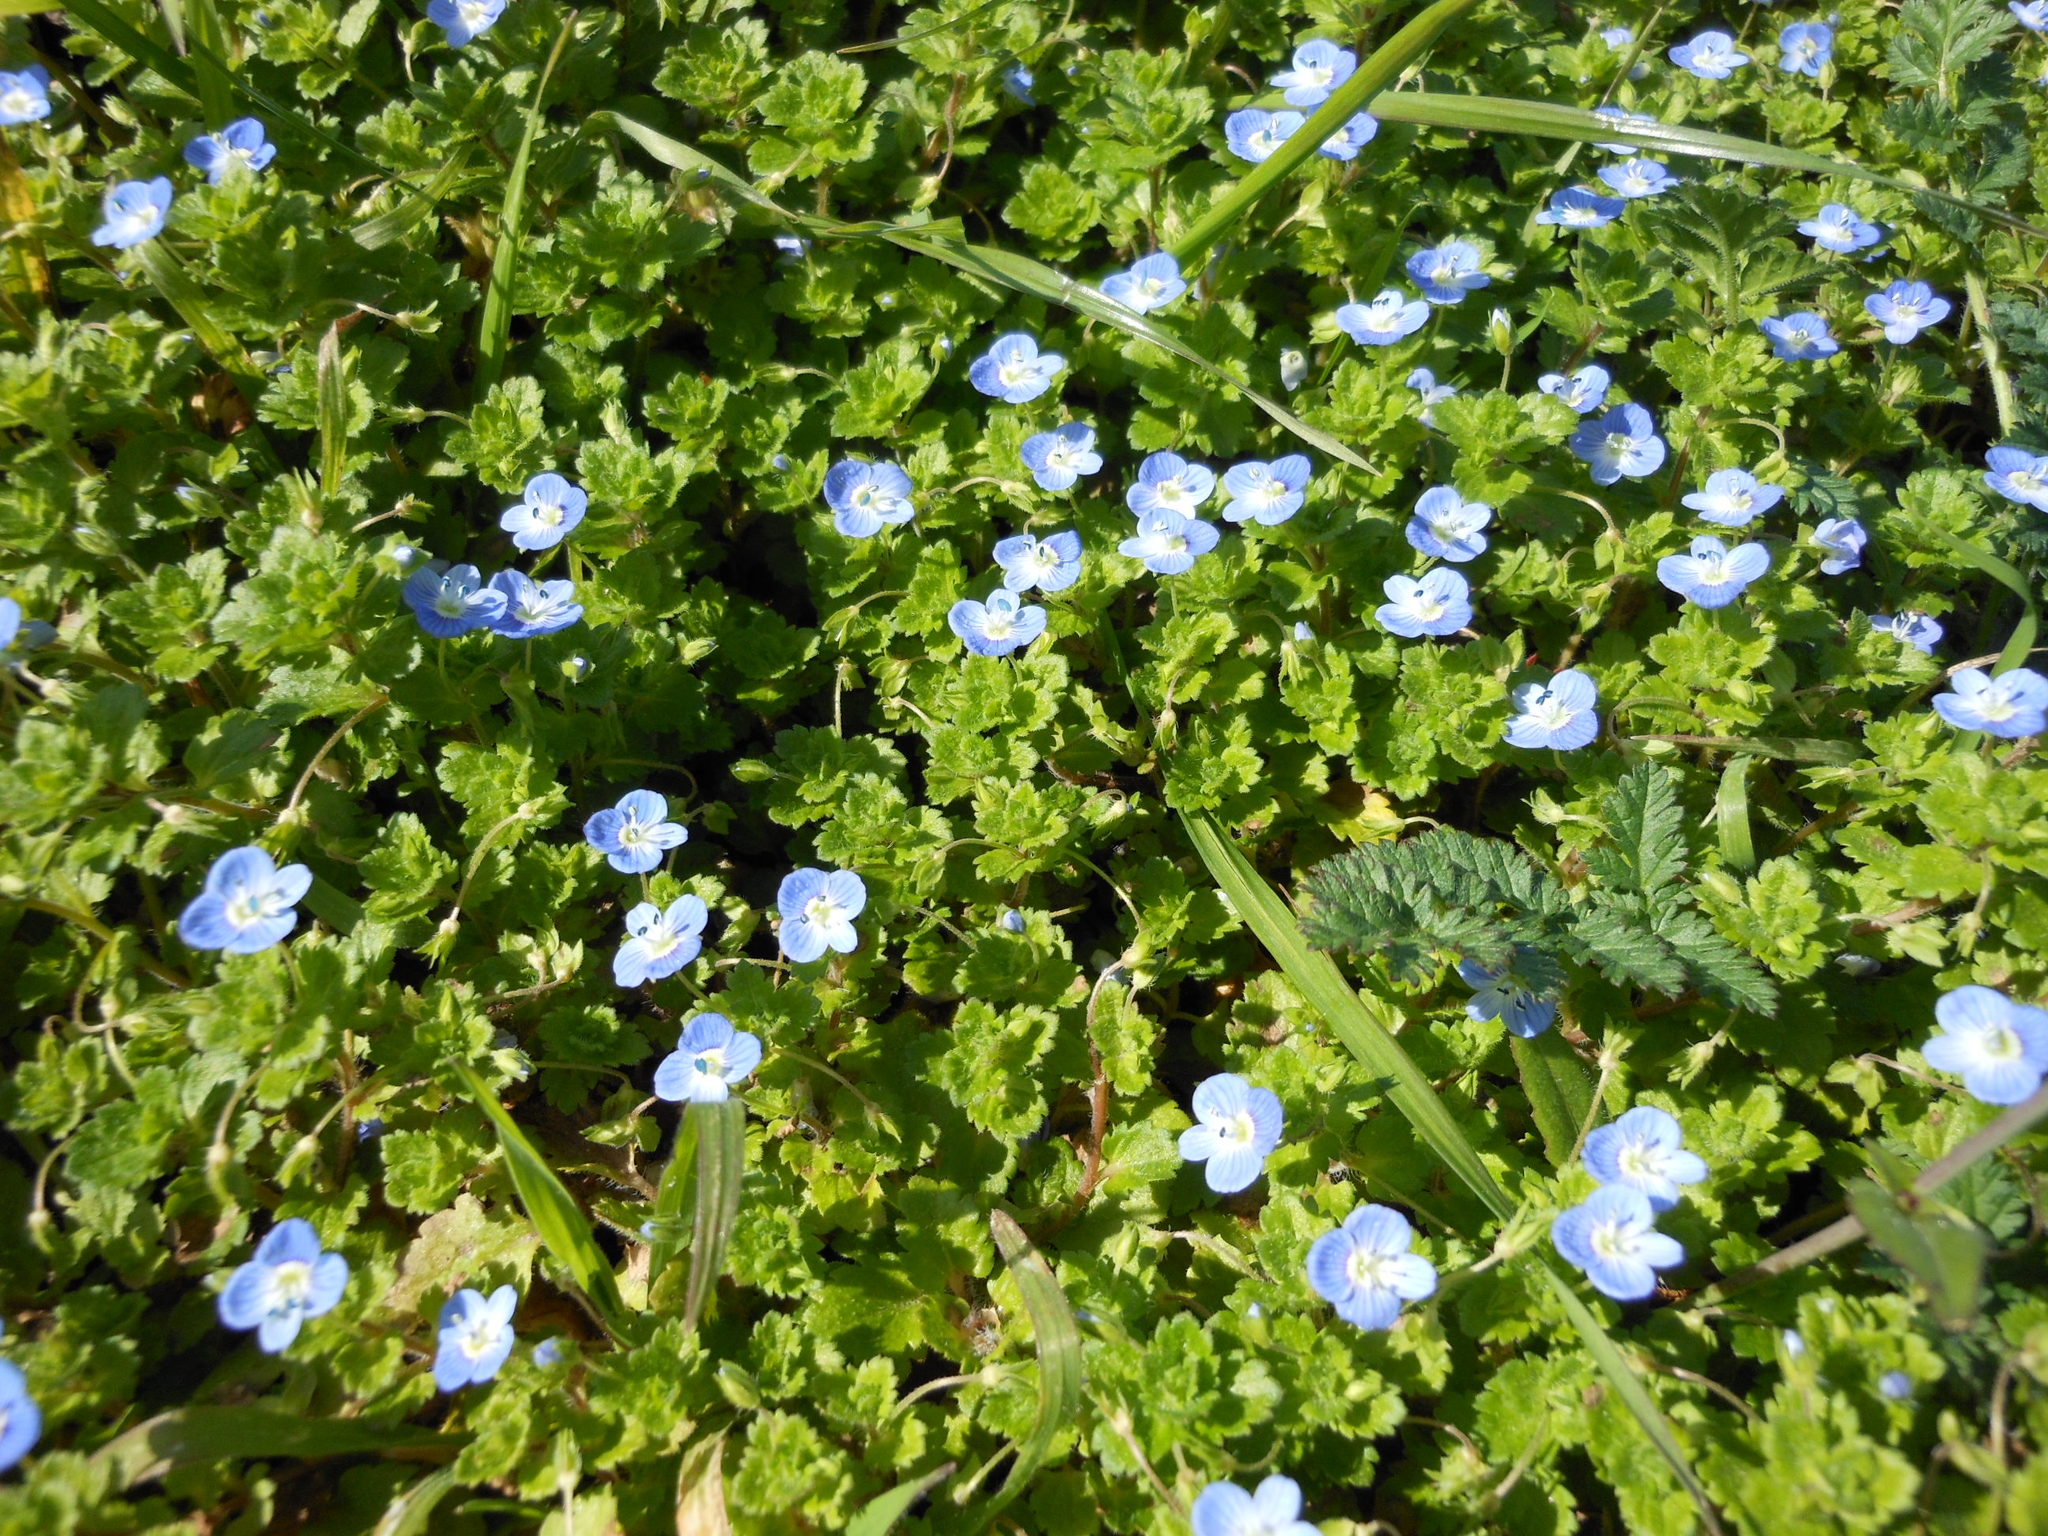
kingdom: Plantae
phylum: Tracheophyta
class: Magnoliopsida
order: Lamiales
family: Plantaginaceae
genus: Veronica
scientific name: Veronica persica
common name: Common field-speedwell
